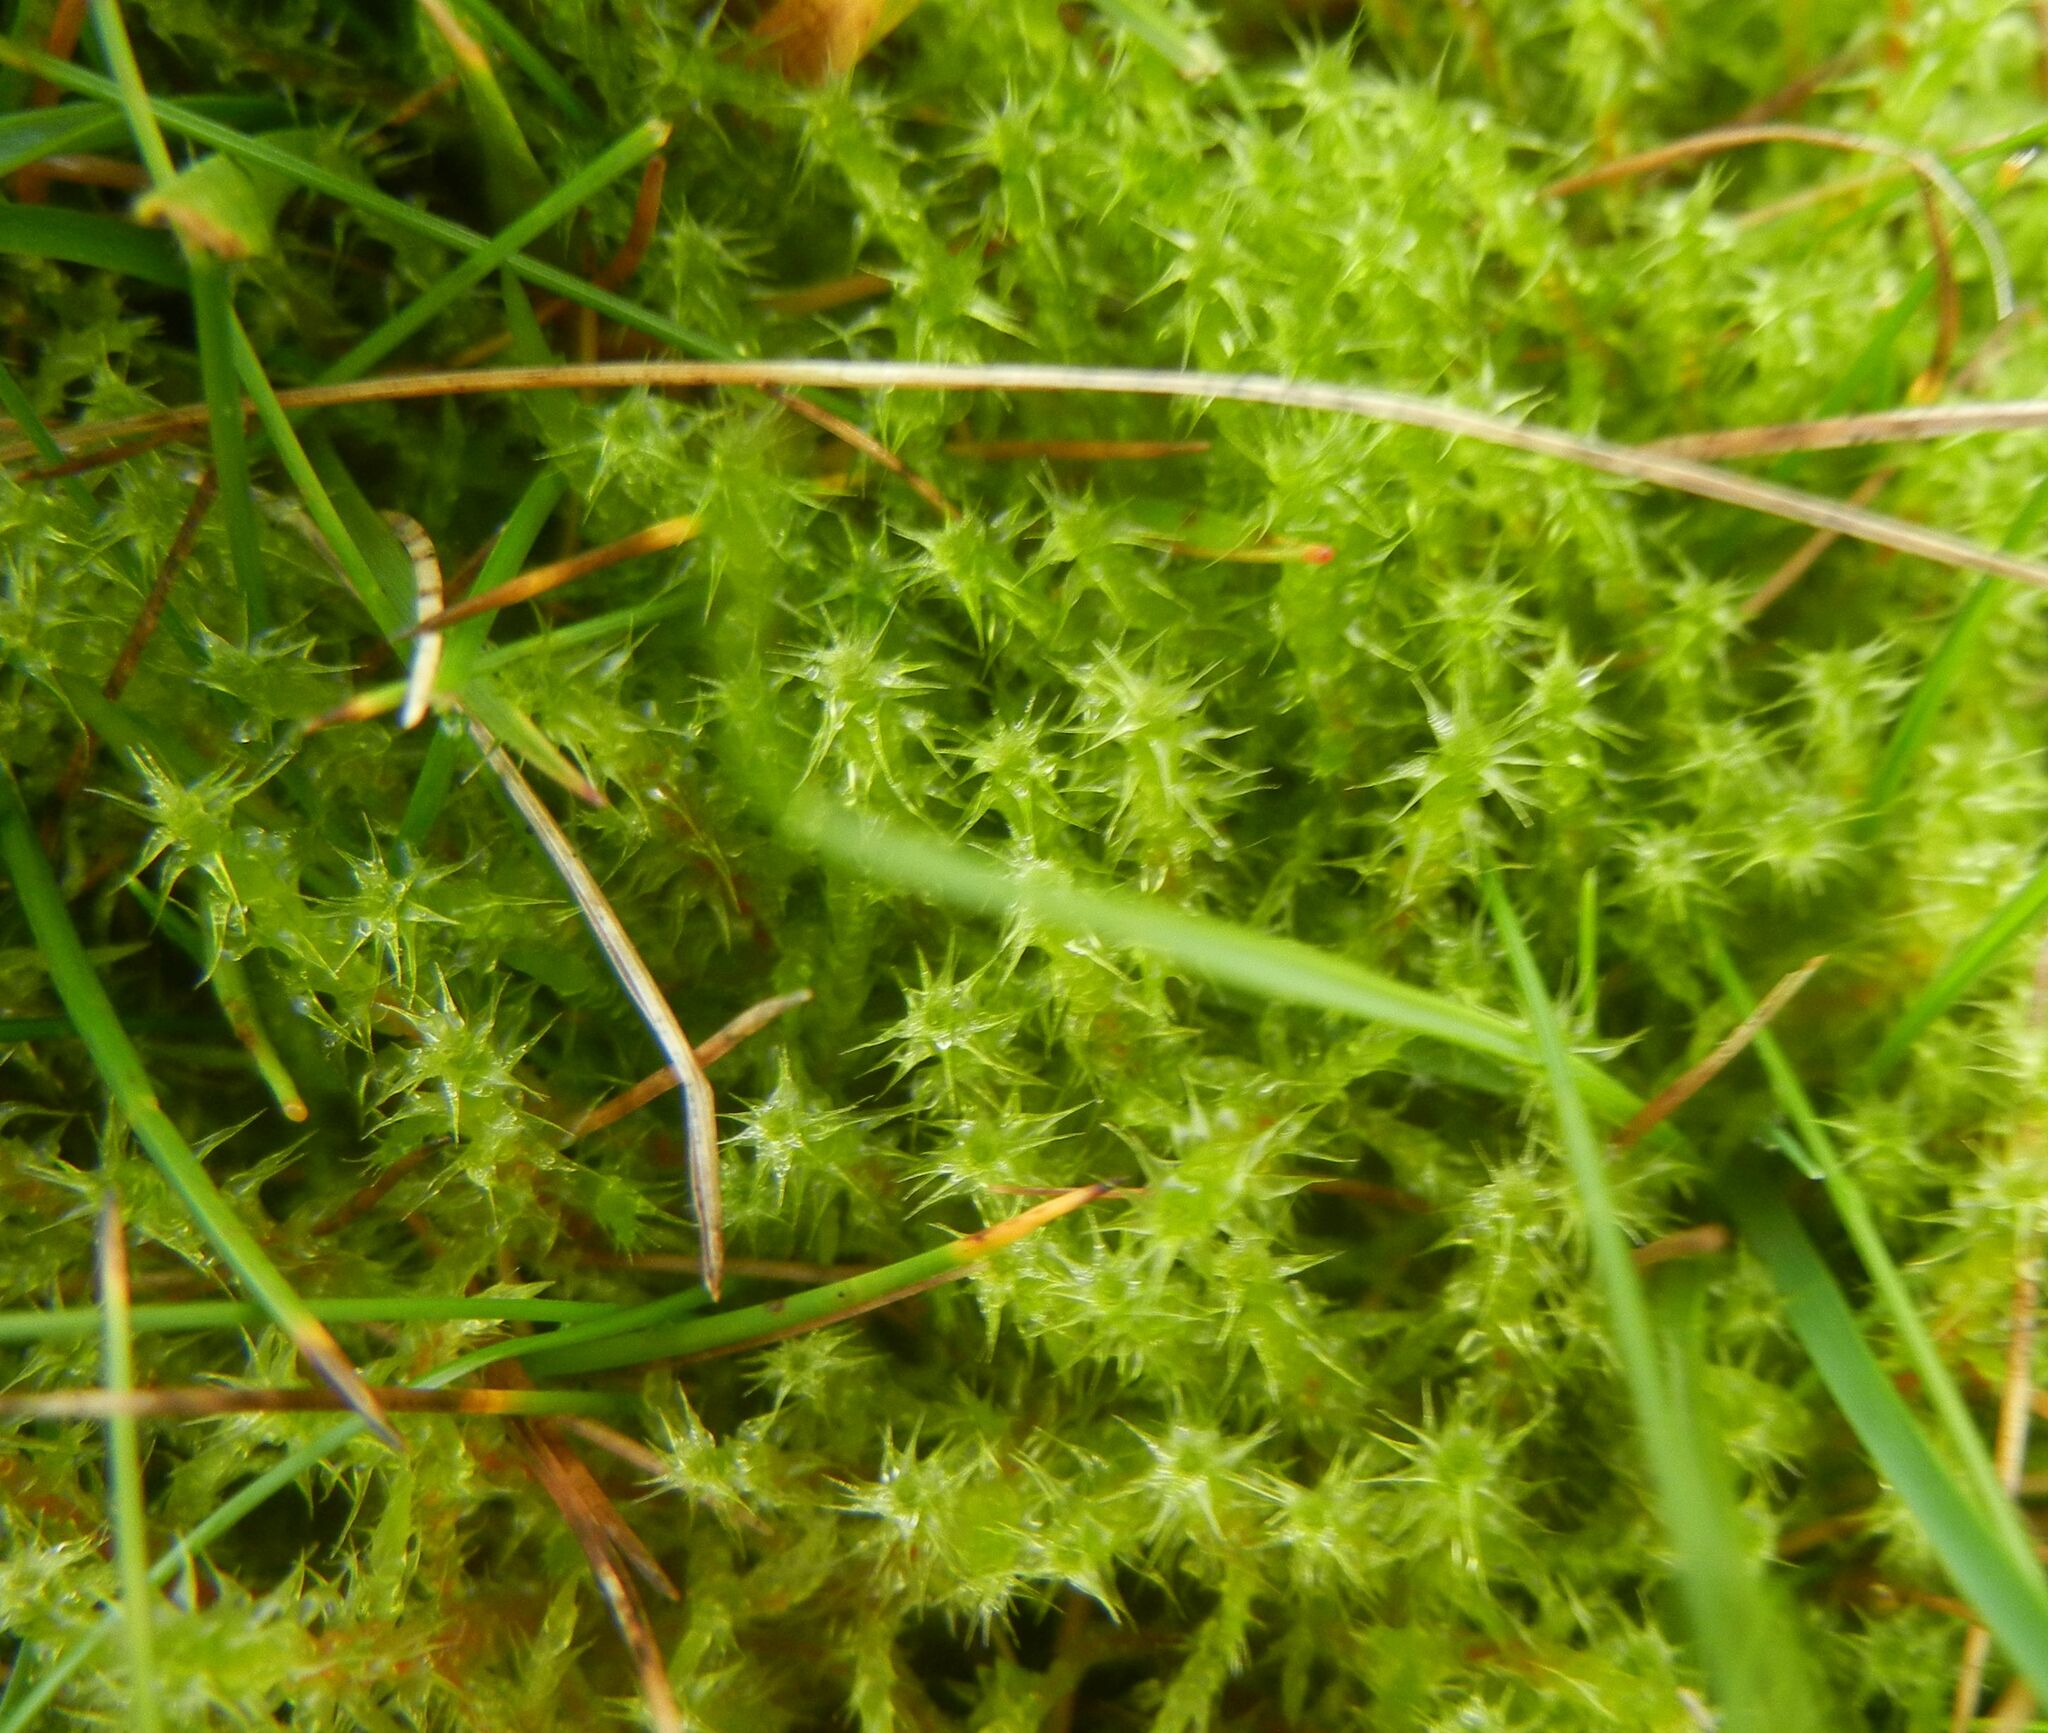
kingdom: Plantae
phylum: Bryophyta
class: Bryopsida
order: Hypnales
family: Hylocomiaceae
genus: Rhytidiadelphus
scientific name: Rhytidiadelphus squarrosus
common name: Springy turf-moss
